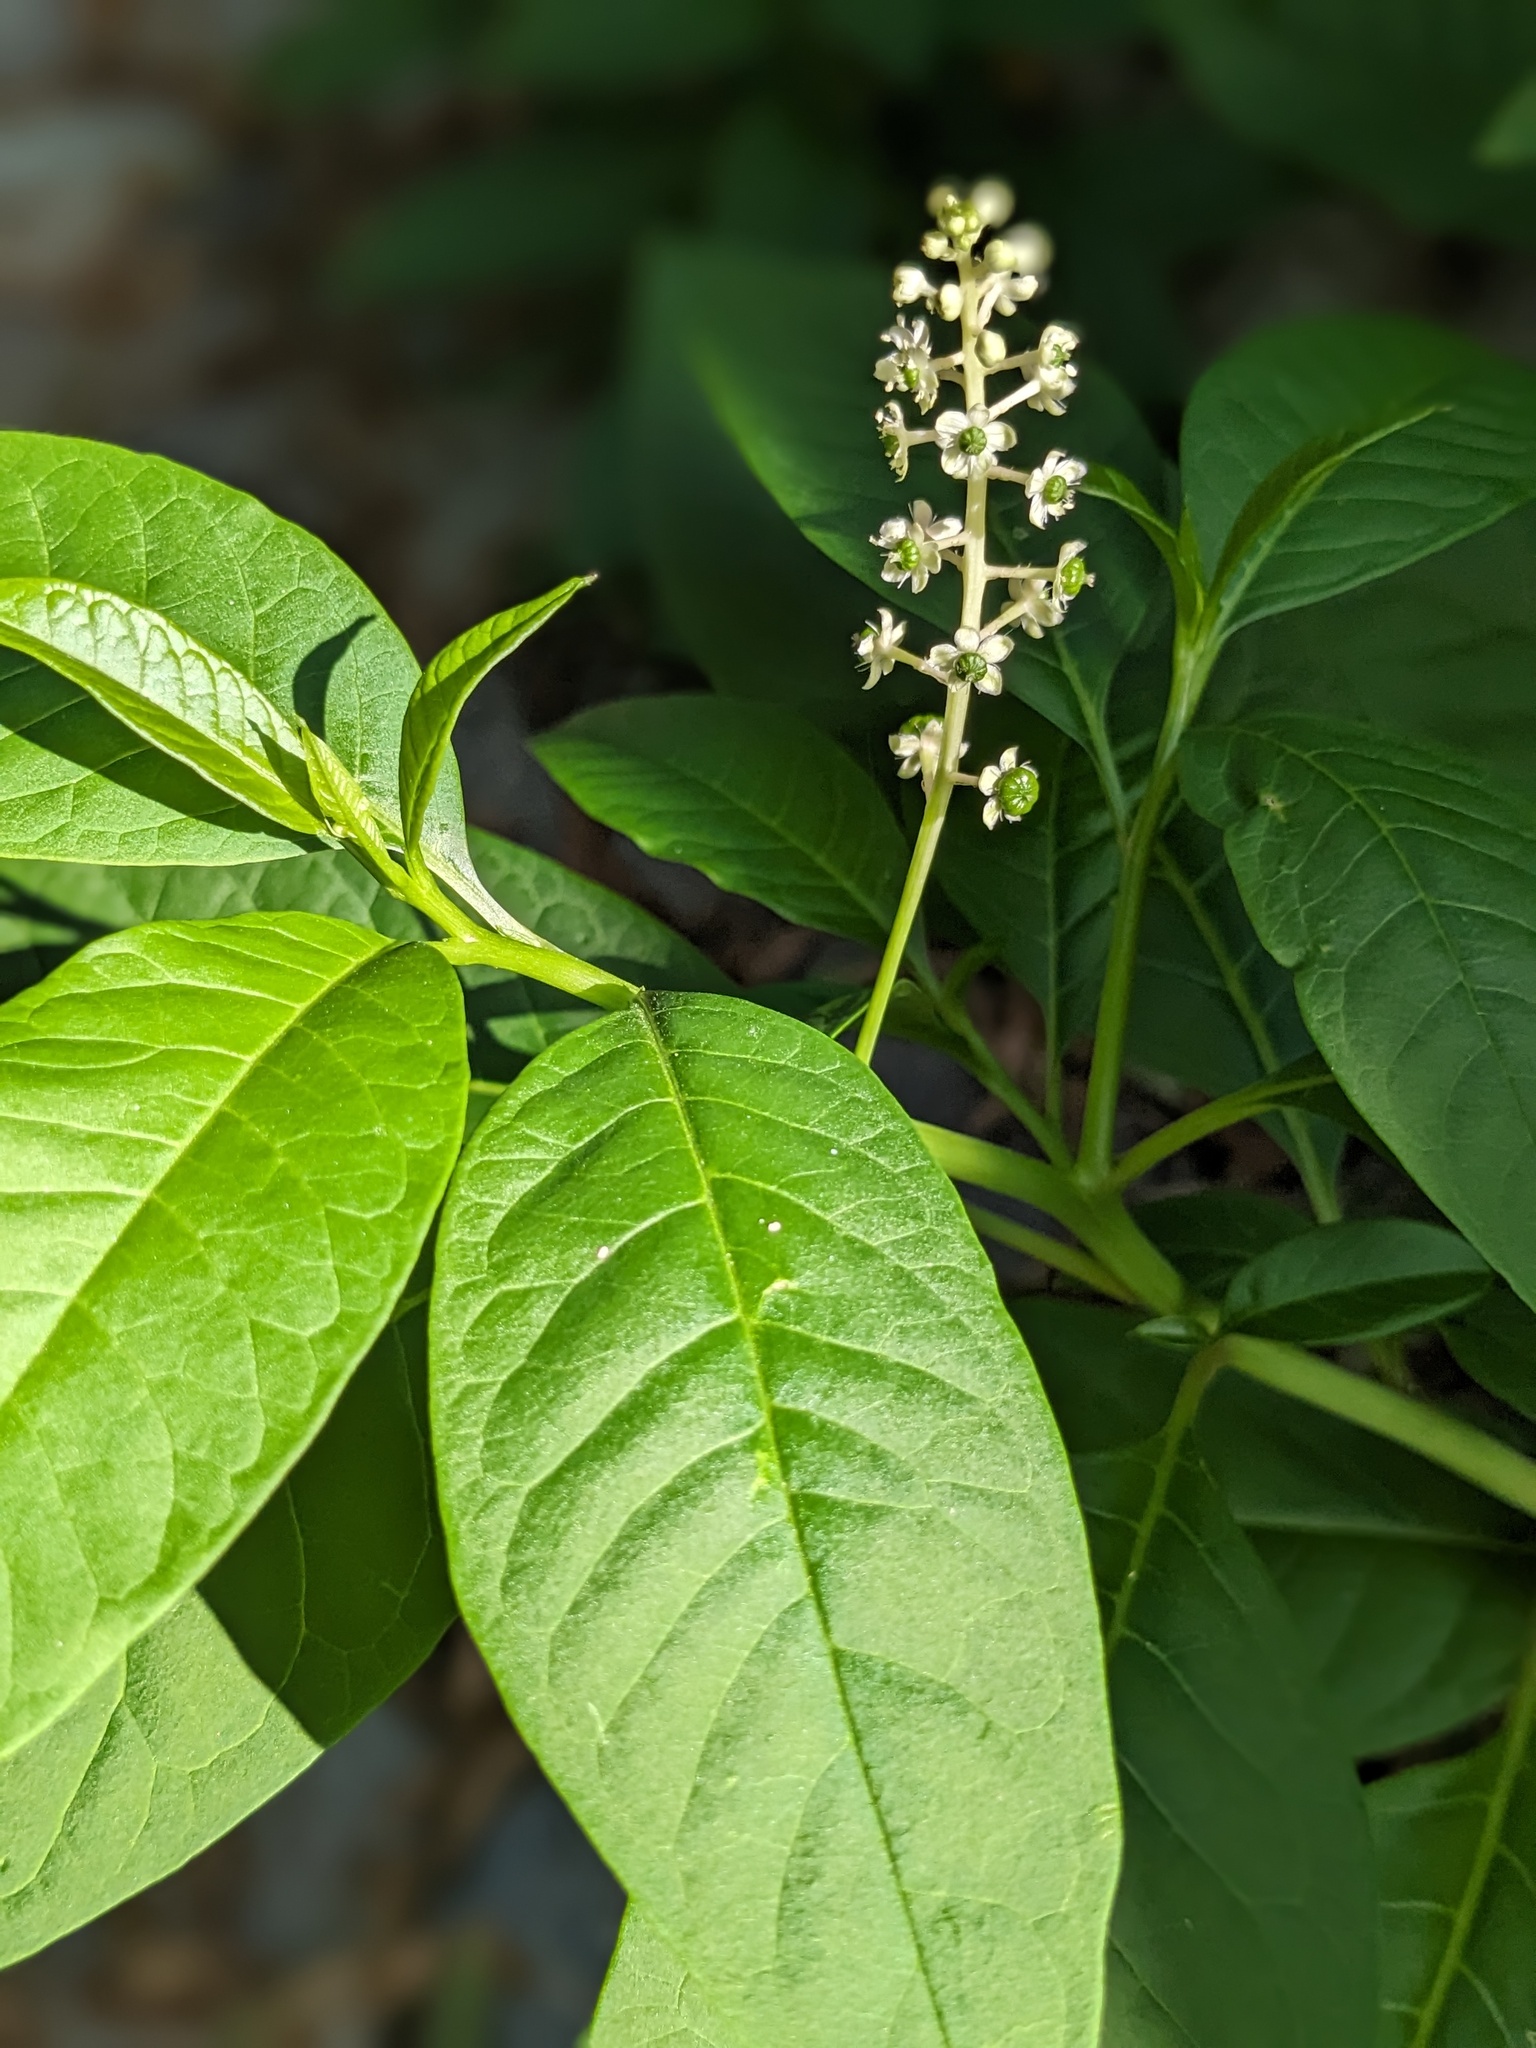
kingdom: Plantae
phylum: Tracheophyta
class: Magnoliopsida
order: Caryophyllales
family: Phytolaccaceae
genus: Phytolacca
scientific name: Phytolacca americana
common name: American pokeweed
